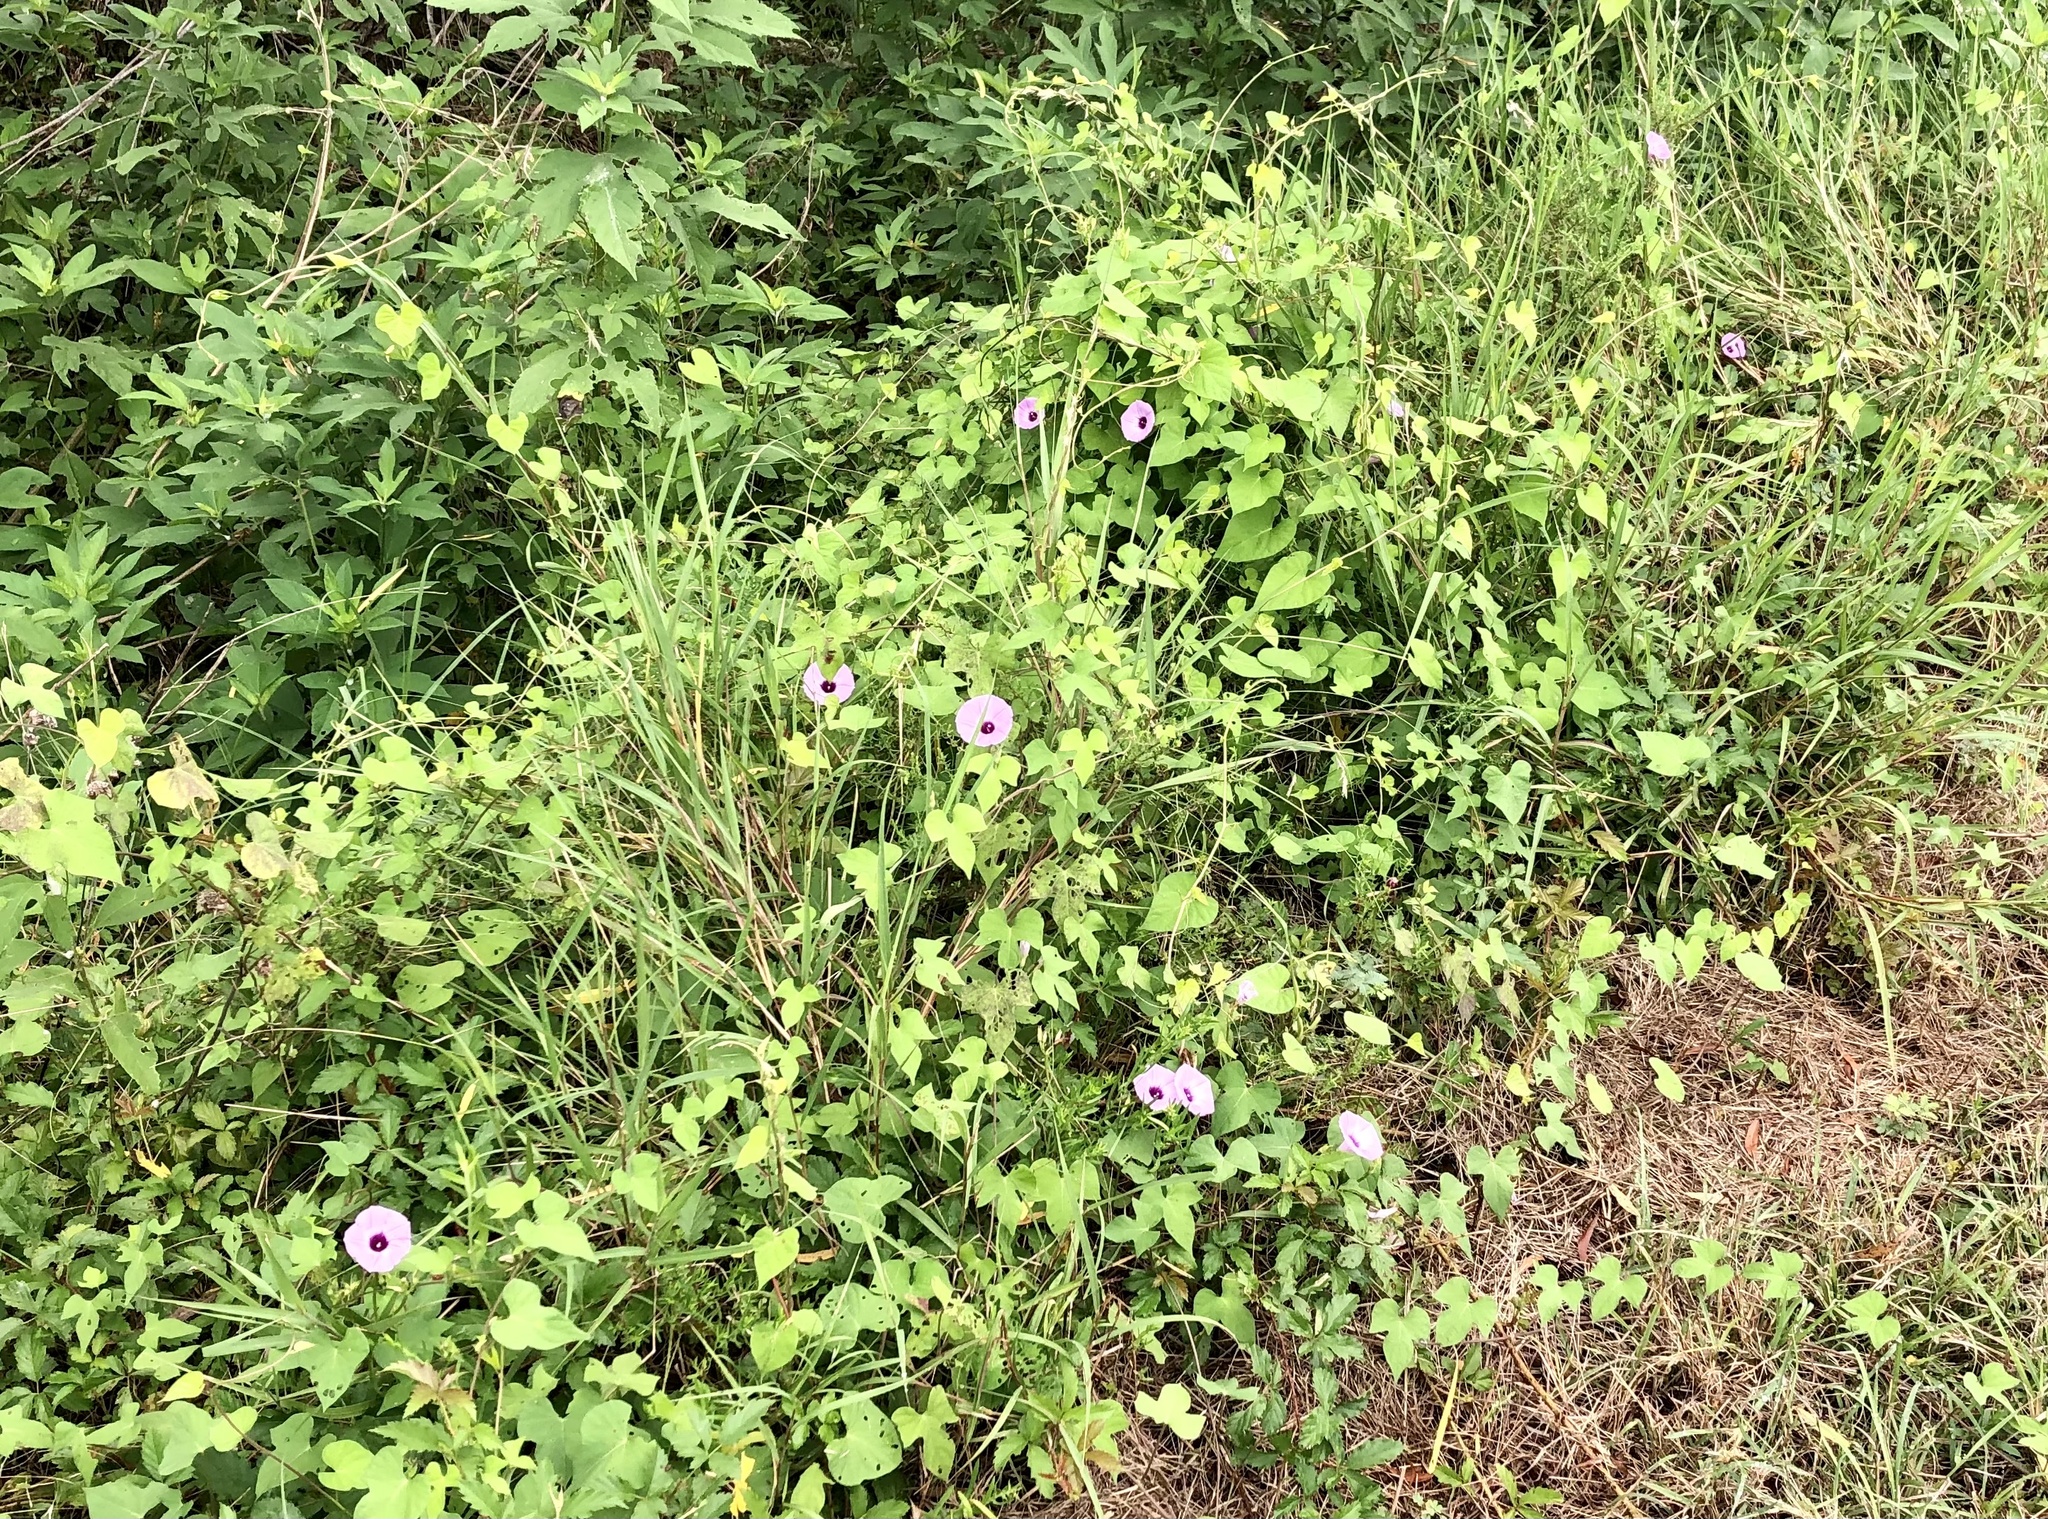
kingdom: Plantae
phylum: Tracheophyta
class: Magnoliopsida
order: Solanales
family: Convolvulaceae
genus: Ipomoea
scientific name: Ipomoea cordatotriloba
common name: Cotton morning glory
